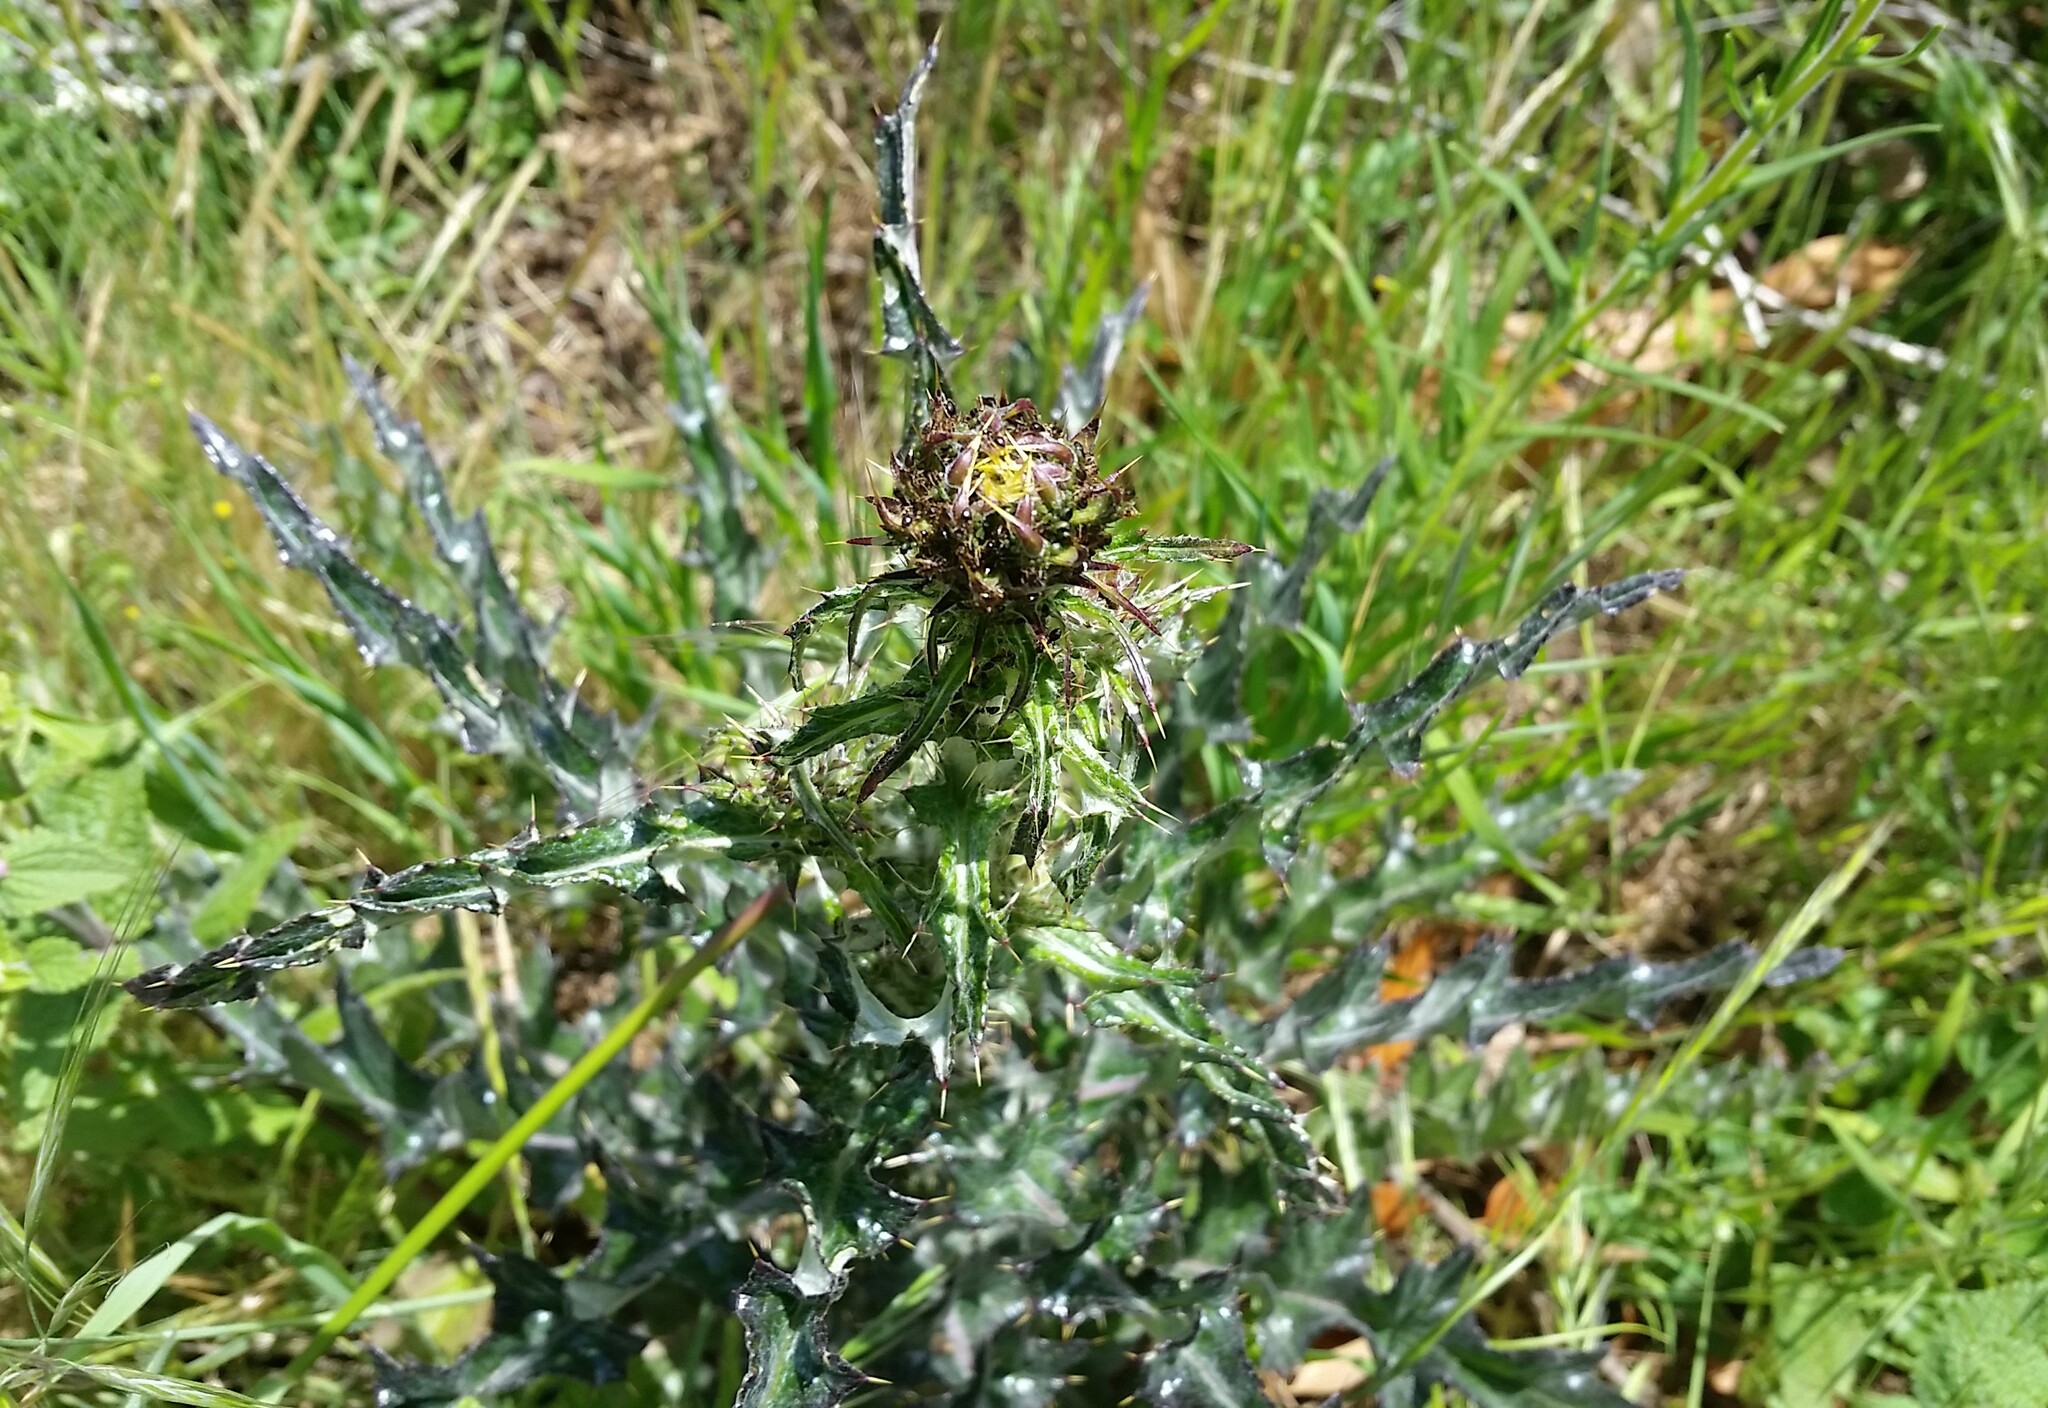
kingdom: Plantae
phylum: Tracheophyta
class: Magnoliopsida
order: Asterales
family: Asteraceae
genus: Cirsium
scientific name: Cirsium occidentale
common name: Western thistle
